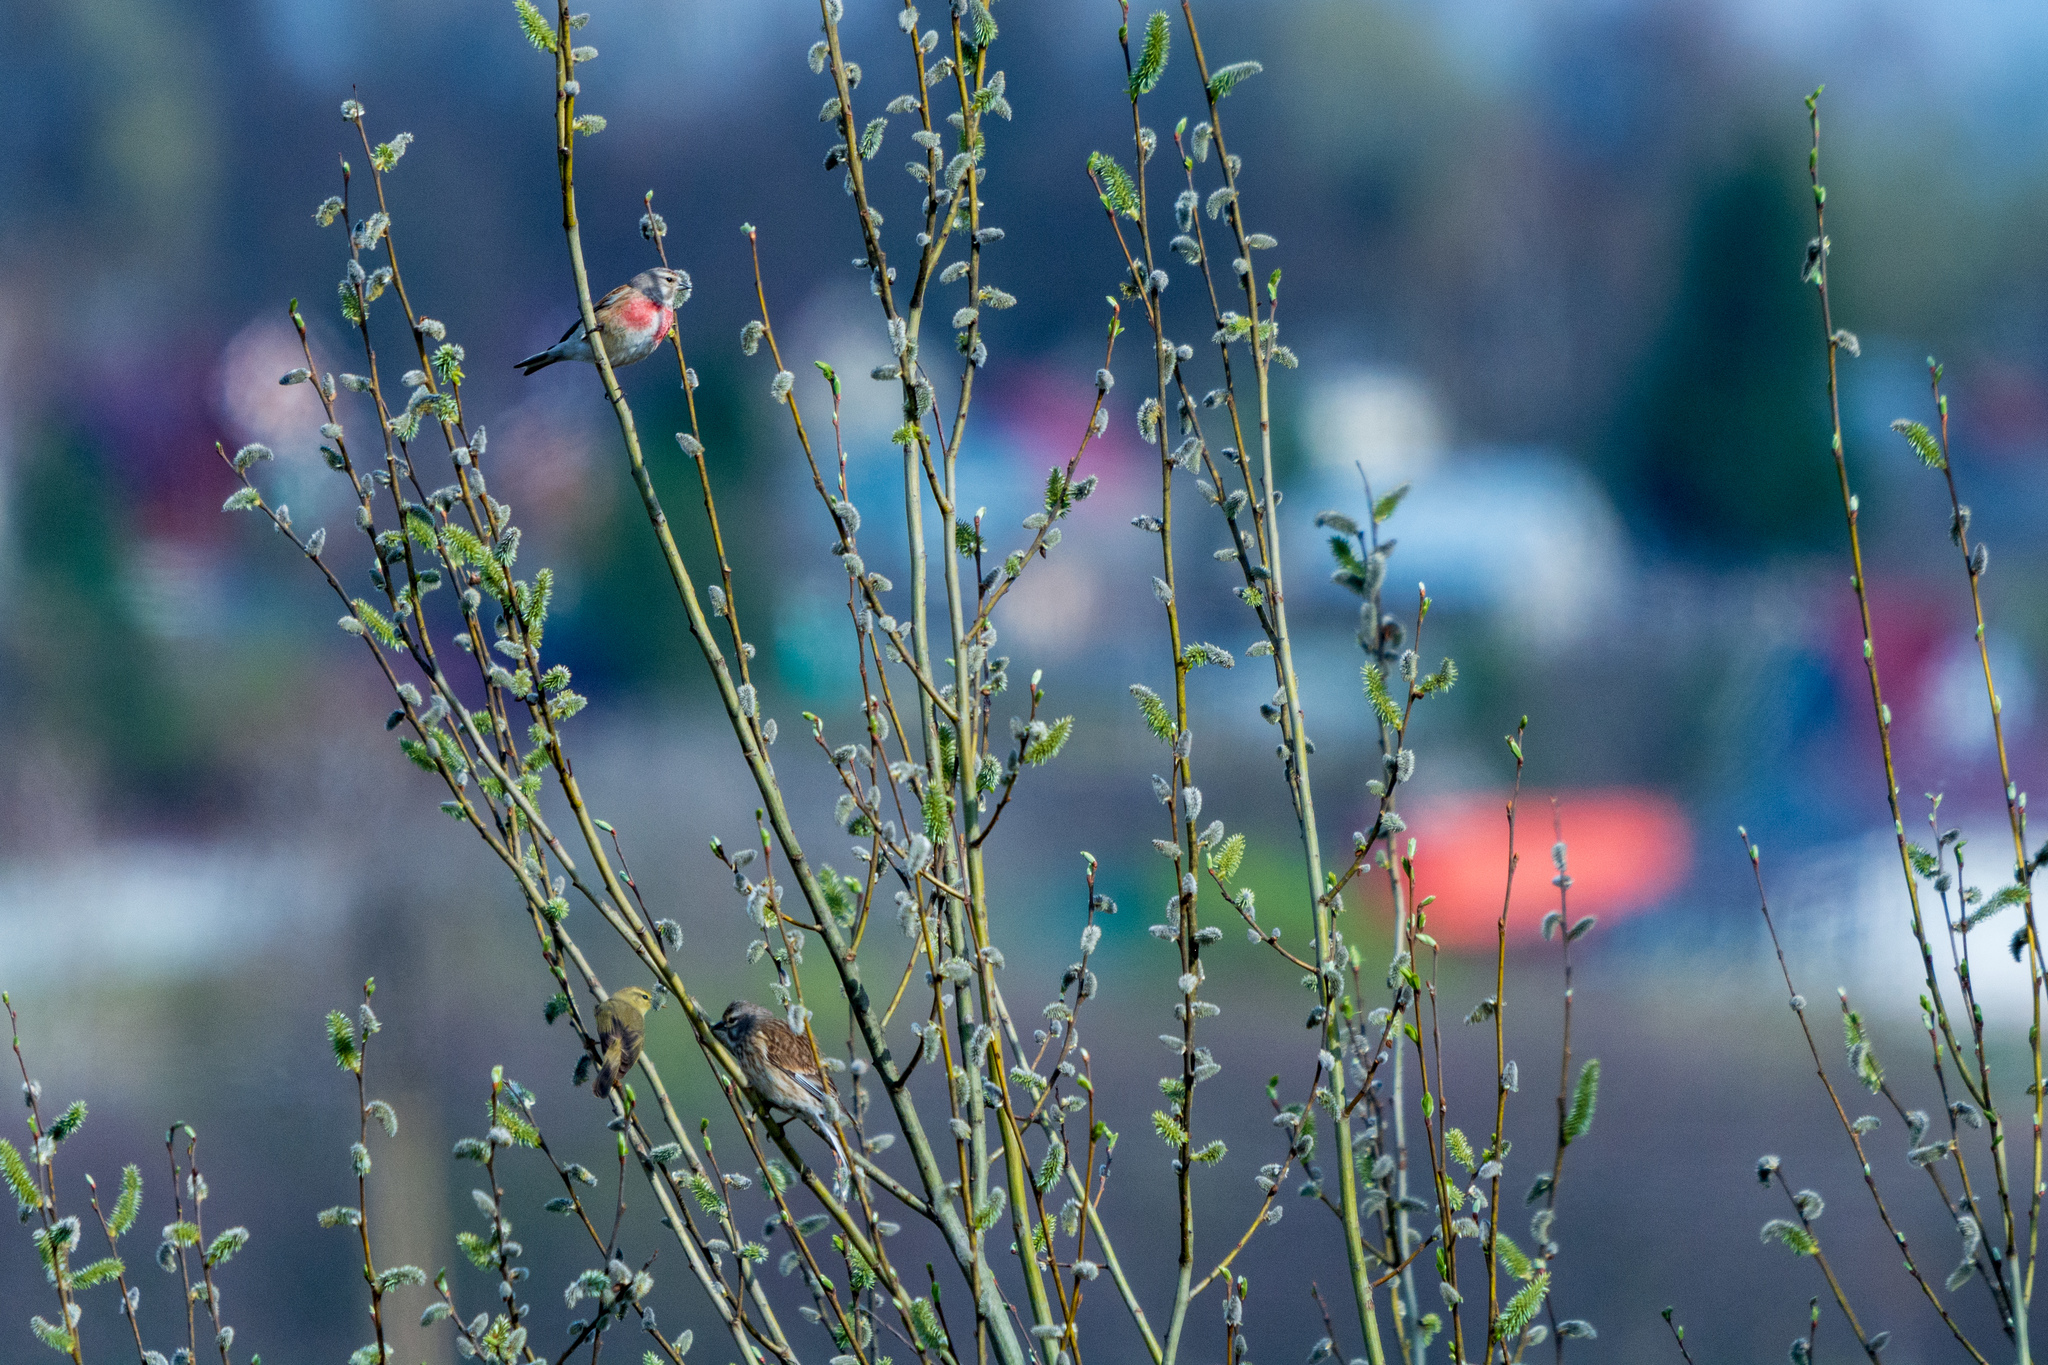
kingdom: Animalia
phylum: Chordata
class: Aves
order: Passeriformes
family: Fringillidae
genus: Linaria
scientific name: Linaria cannabina
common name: Common linnet
